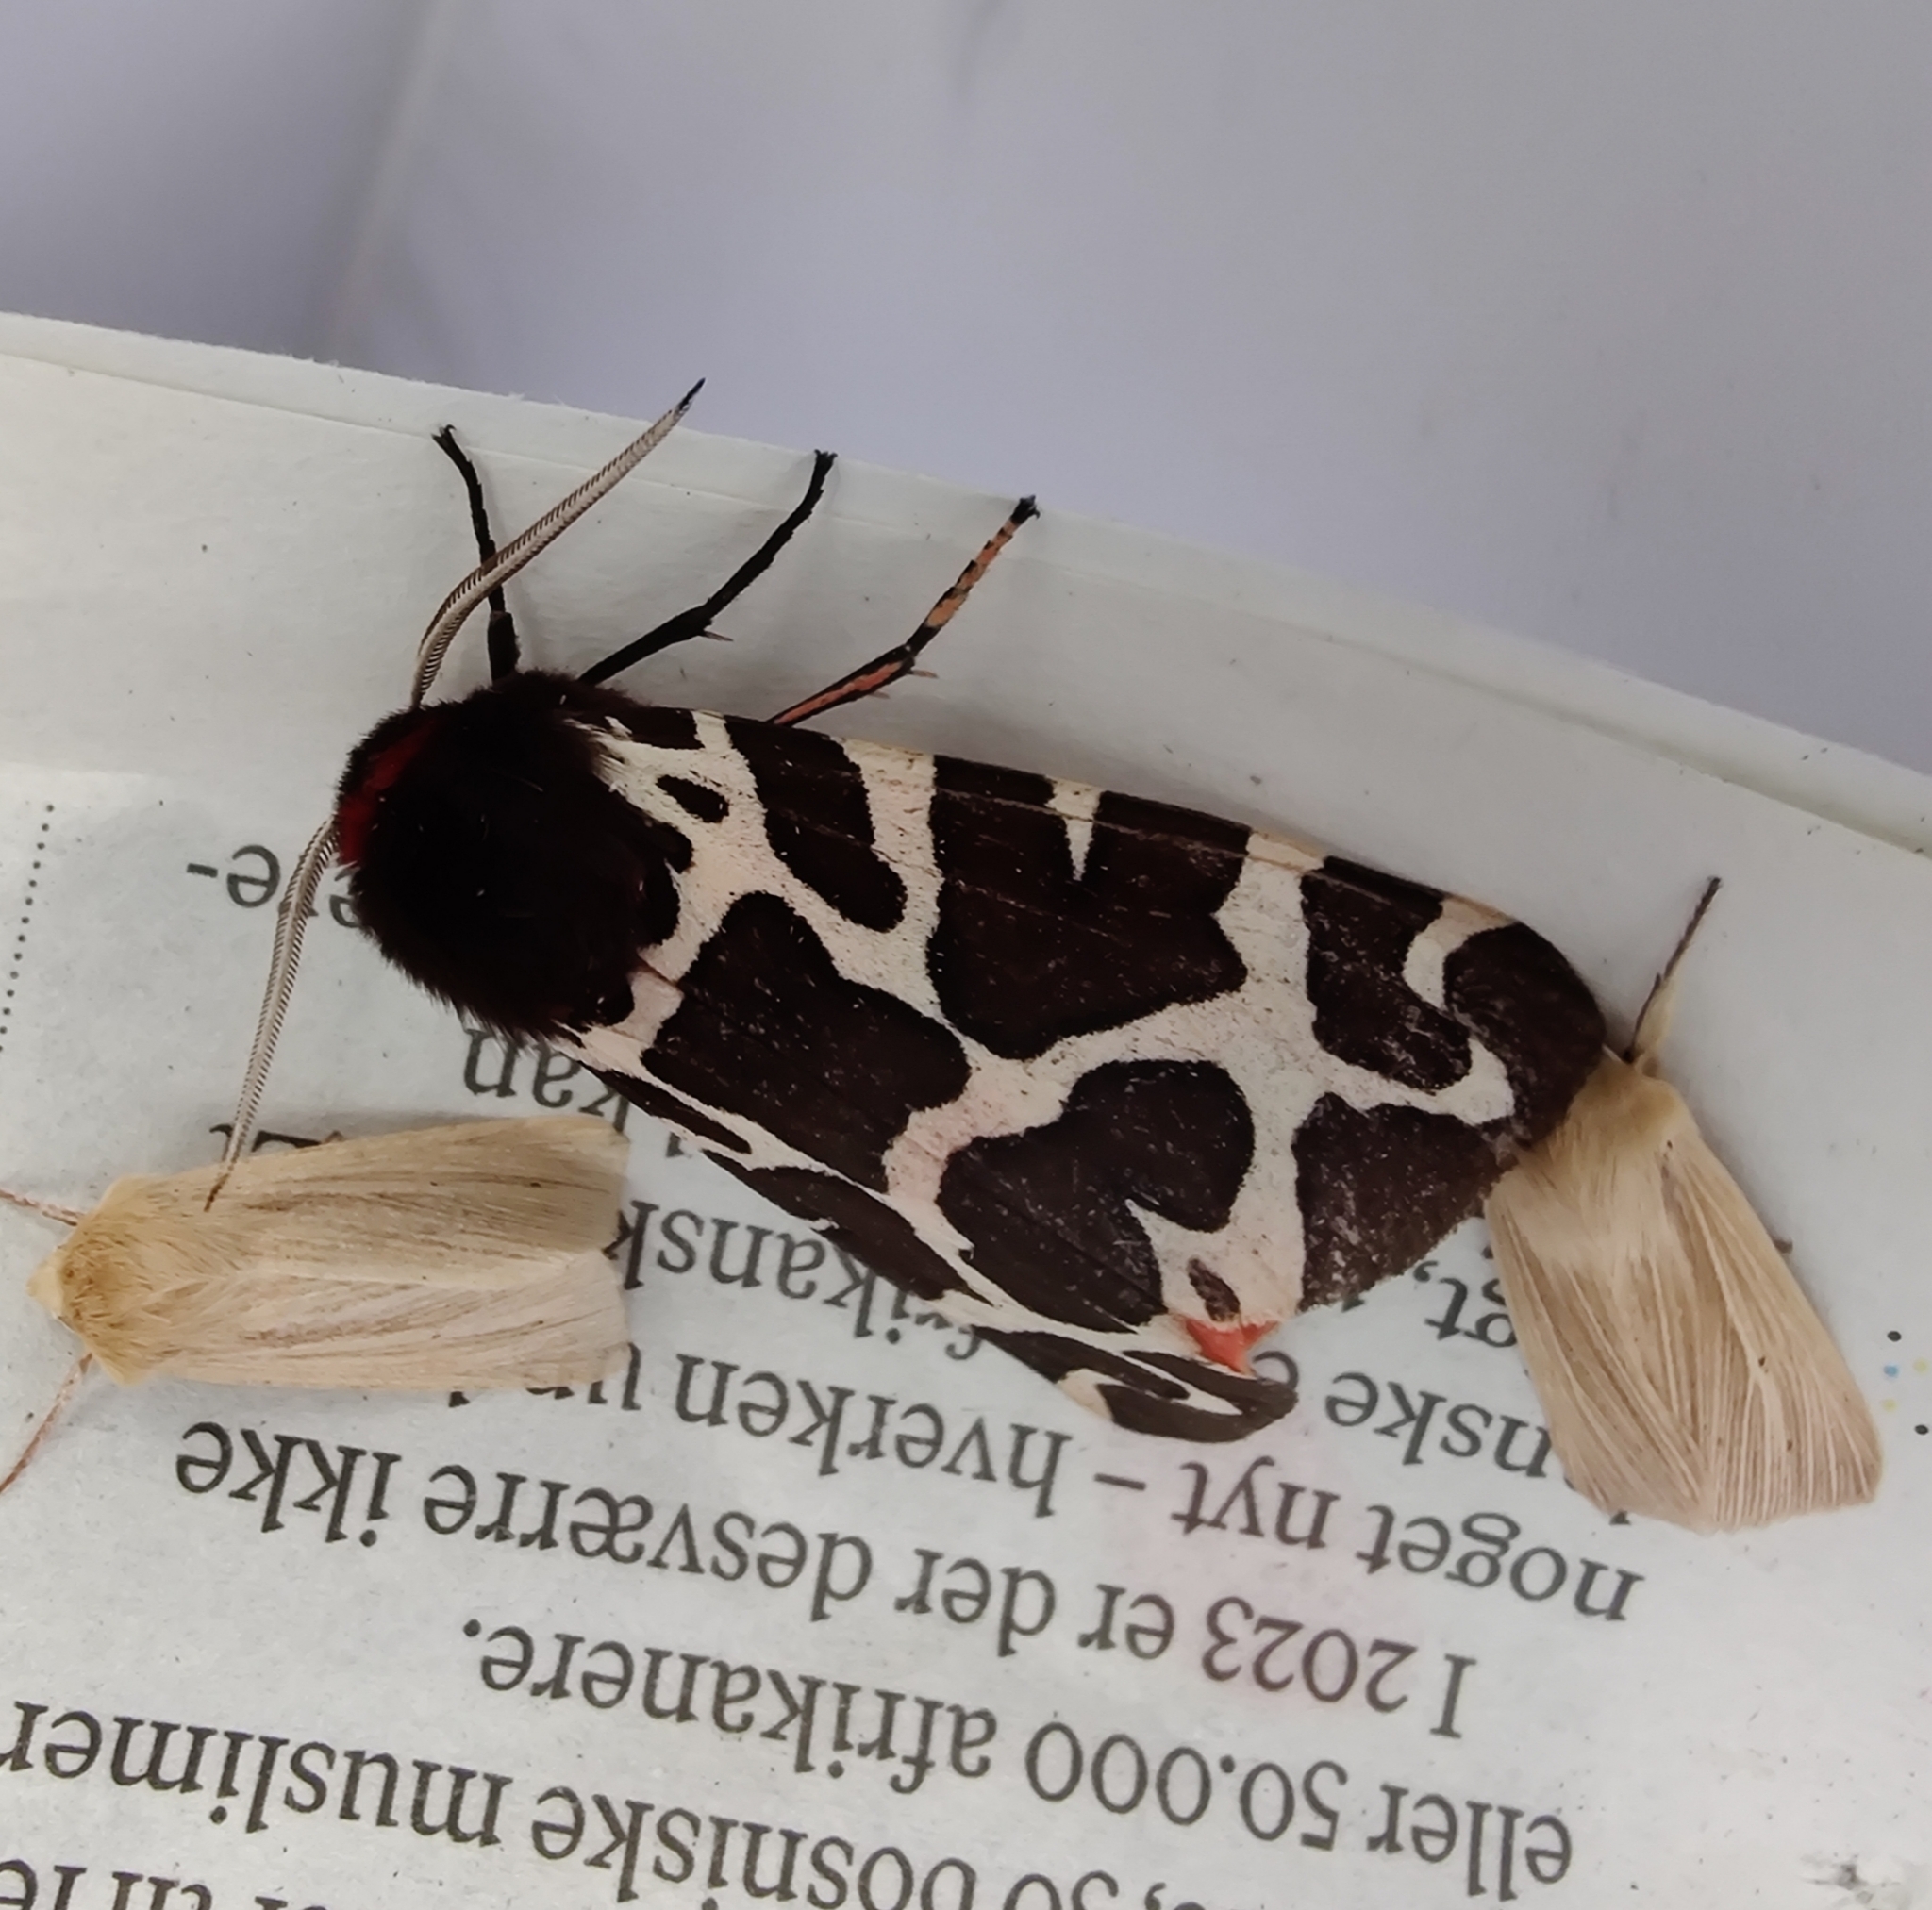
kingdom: Animalia
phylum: Arthropoda
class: Insecta
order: Lepidoptera
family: Erebidae
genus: Arctia
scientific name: Arctia caja
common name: Garden tiger
